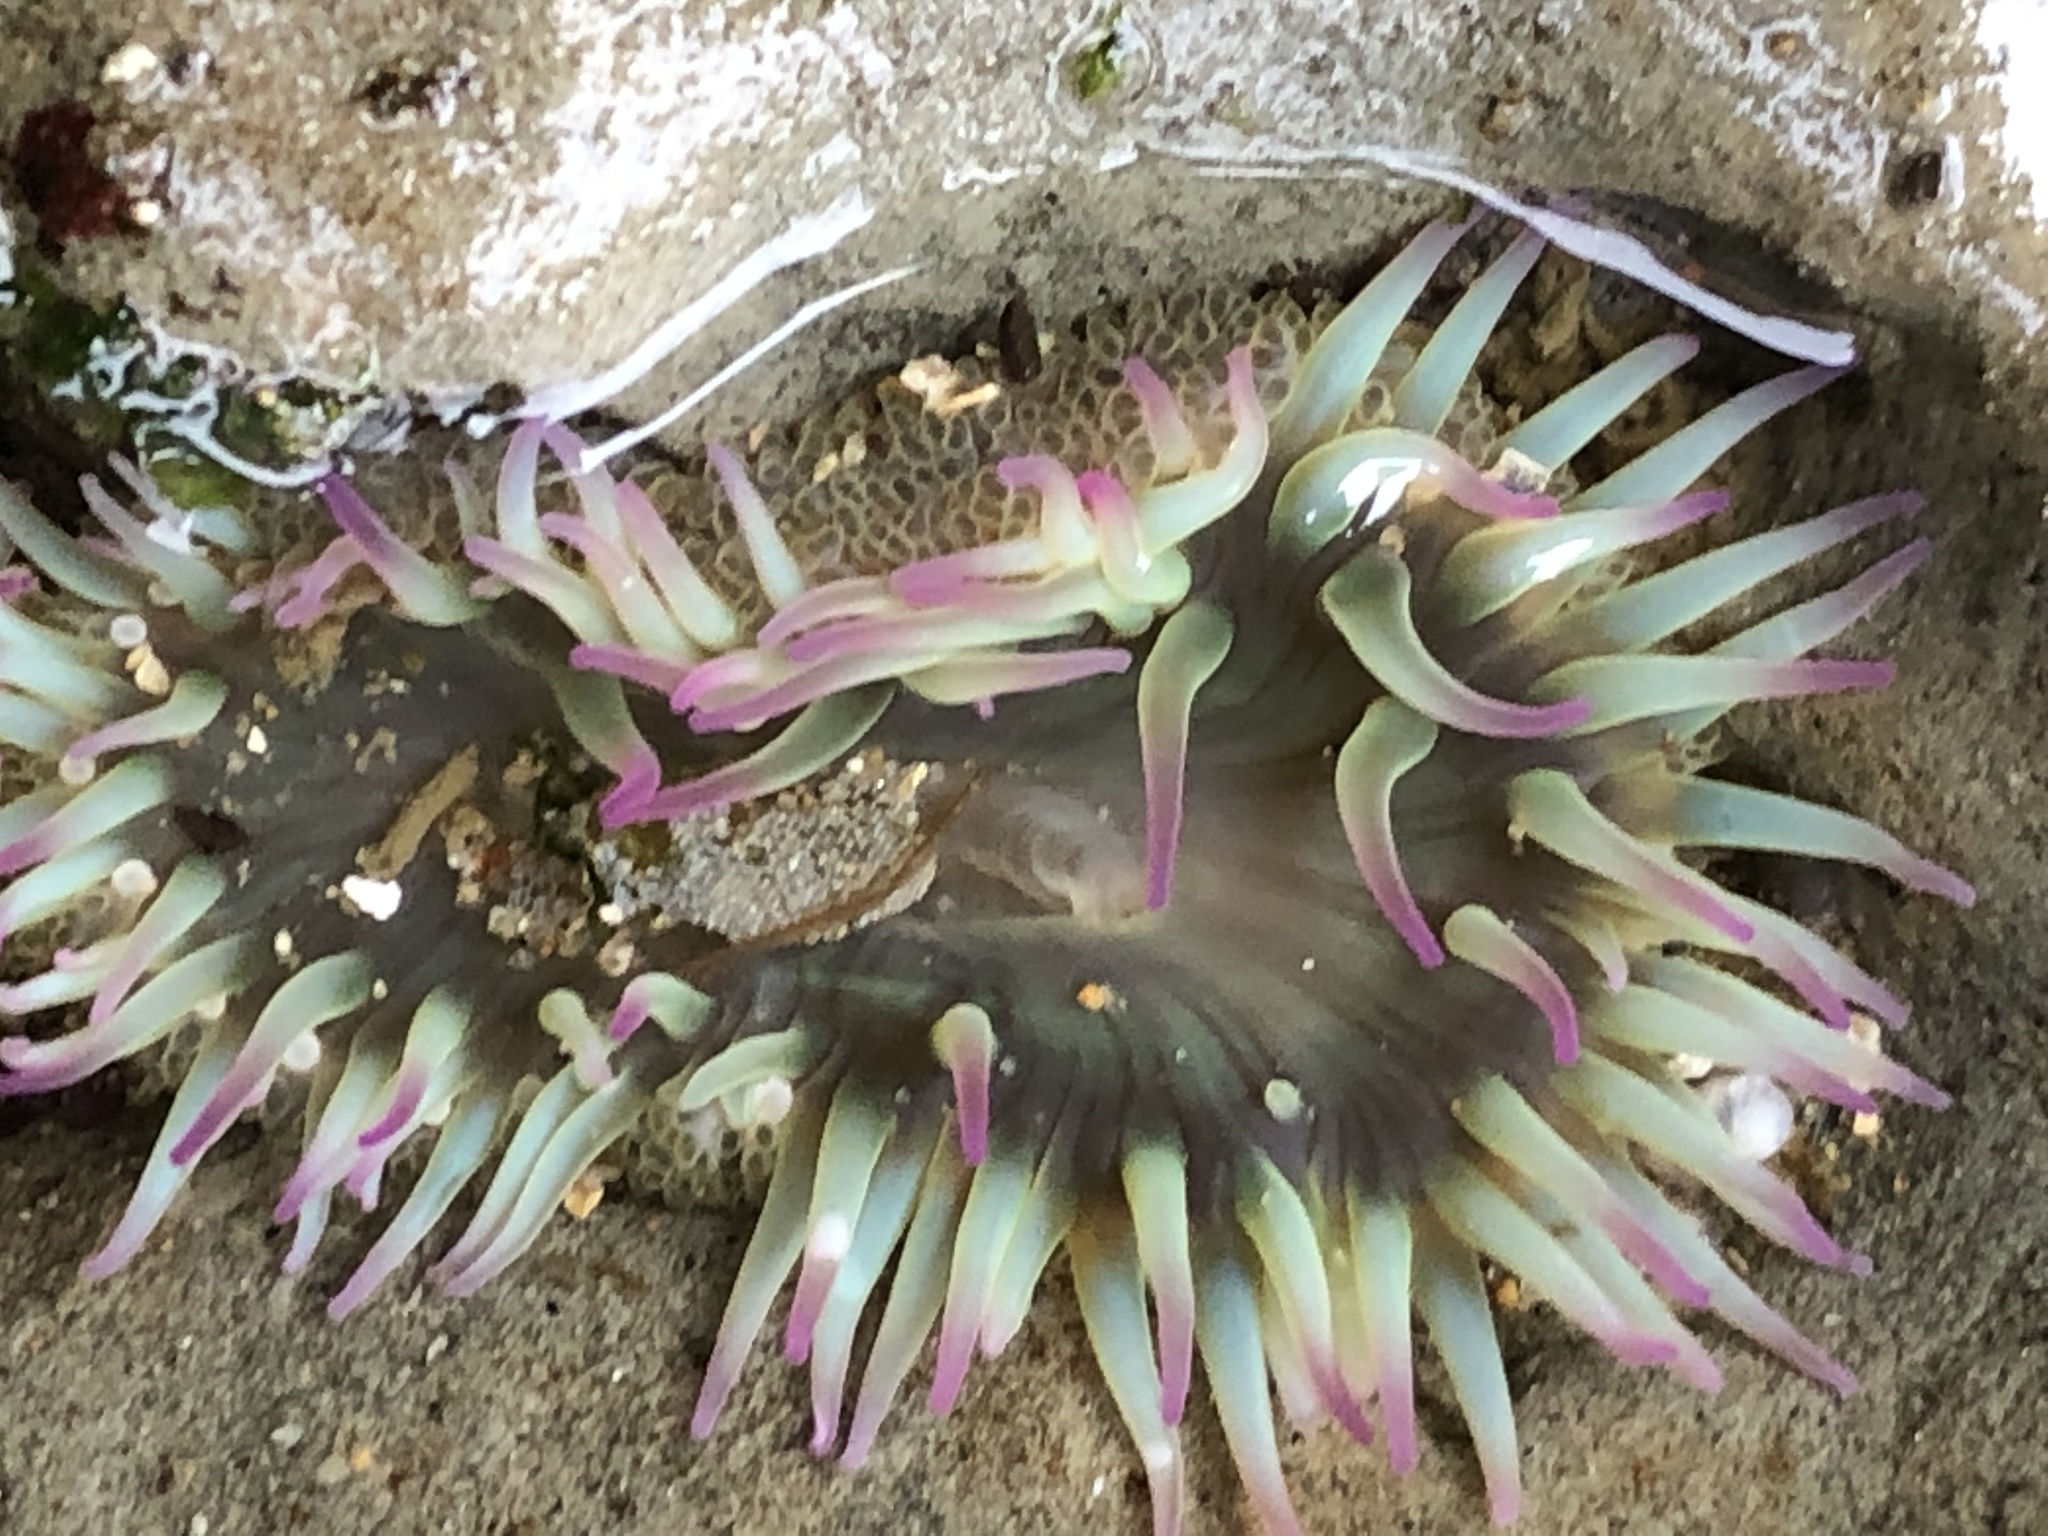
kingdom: Animalia
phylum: Cnidaria
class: Anthozoa
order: Actiniaria
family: Actiniidae
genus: Anthopleura
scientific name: Anthopleura elegantissima
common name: Clonal anemone
